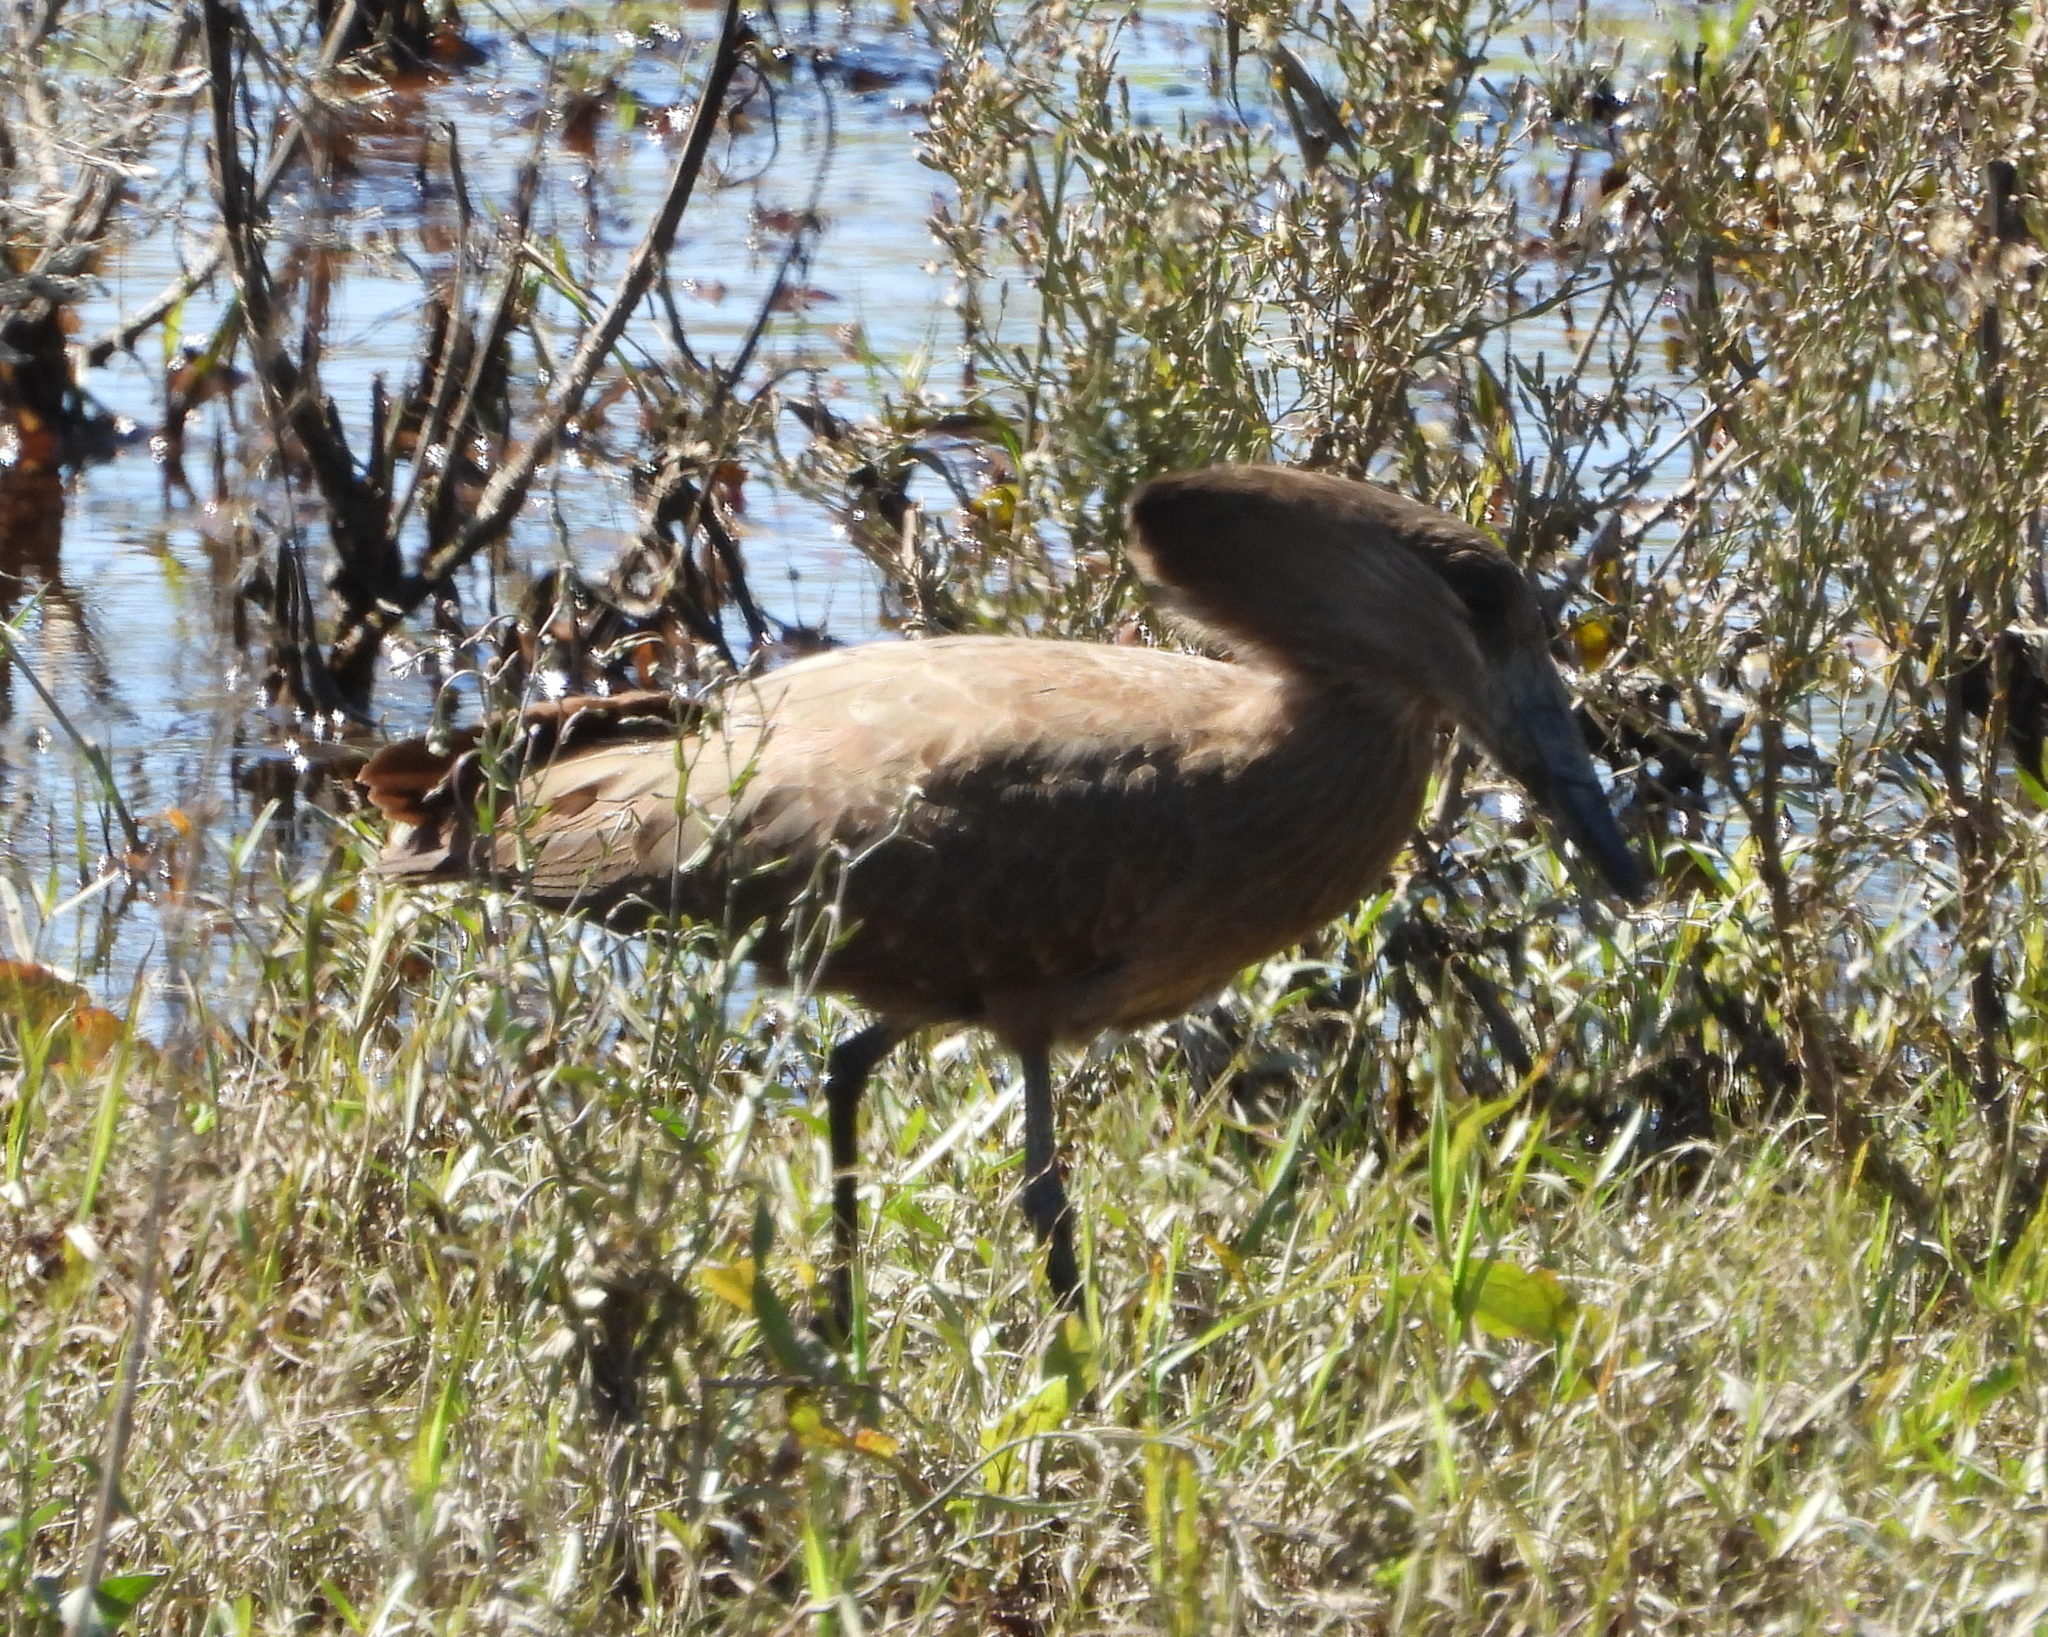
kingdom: Animalia
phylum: Chordata
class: Aves
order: Pelecaniformes
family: Scopidae
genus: Scopus
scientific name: Scopus umbretta
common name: Hamerkop
